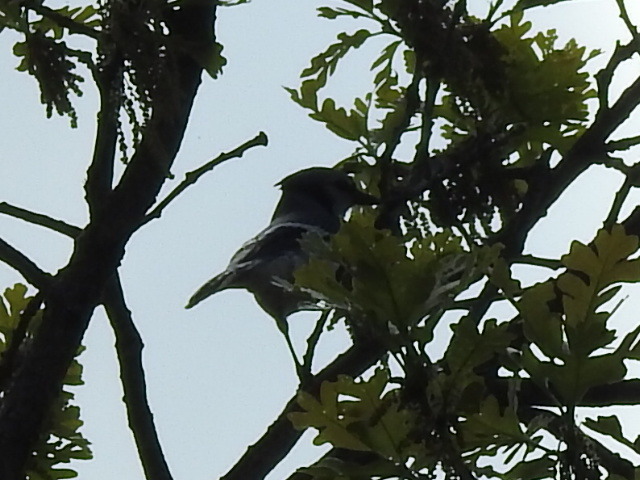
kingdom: Animalia
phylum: Chordata
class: Aves
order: Passeriformes
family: Corvidae
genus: Cyanocitta
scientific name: Cyanocitta cristata
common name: Blue jay
